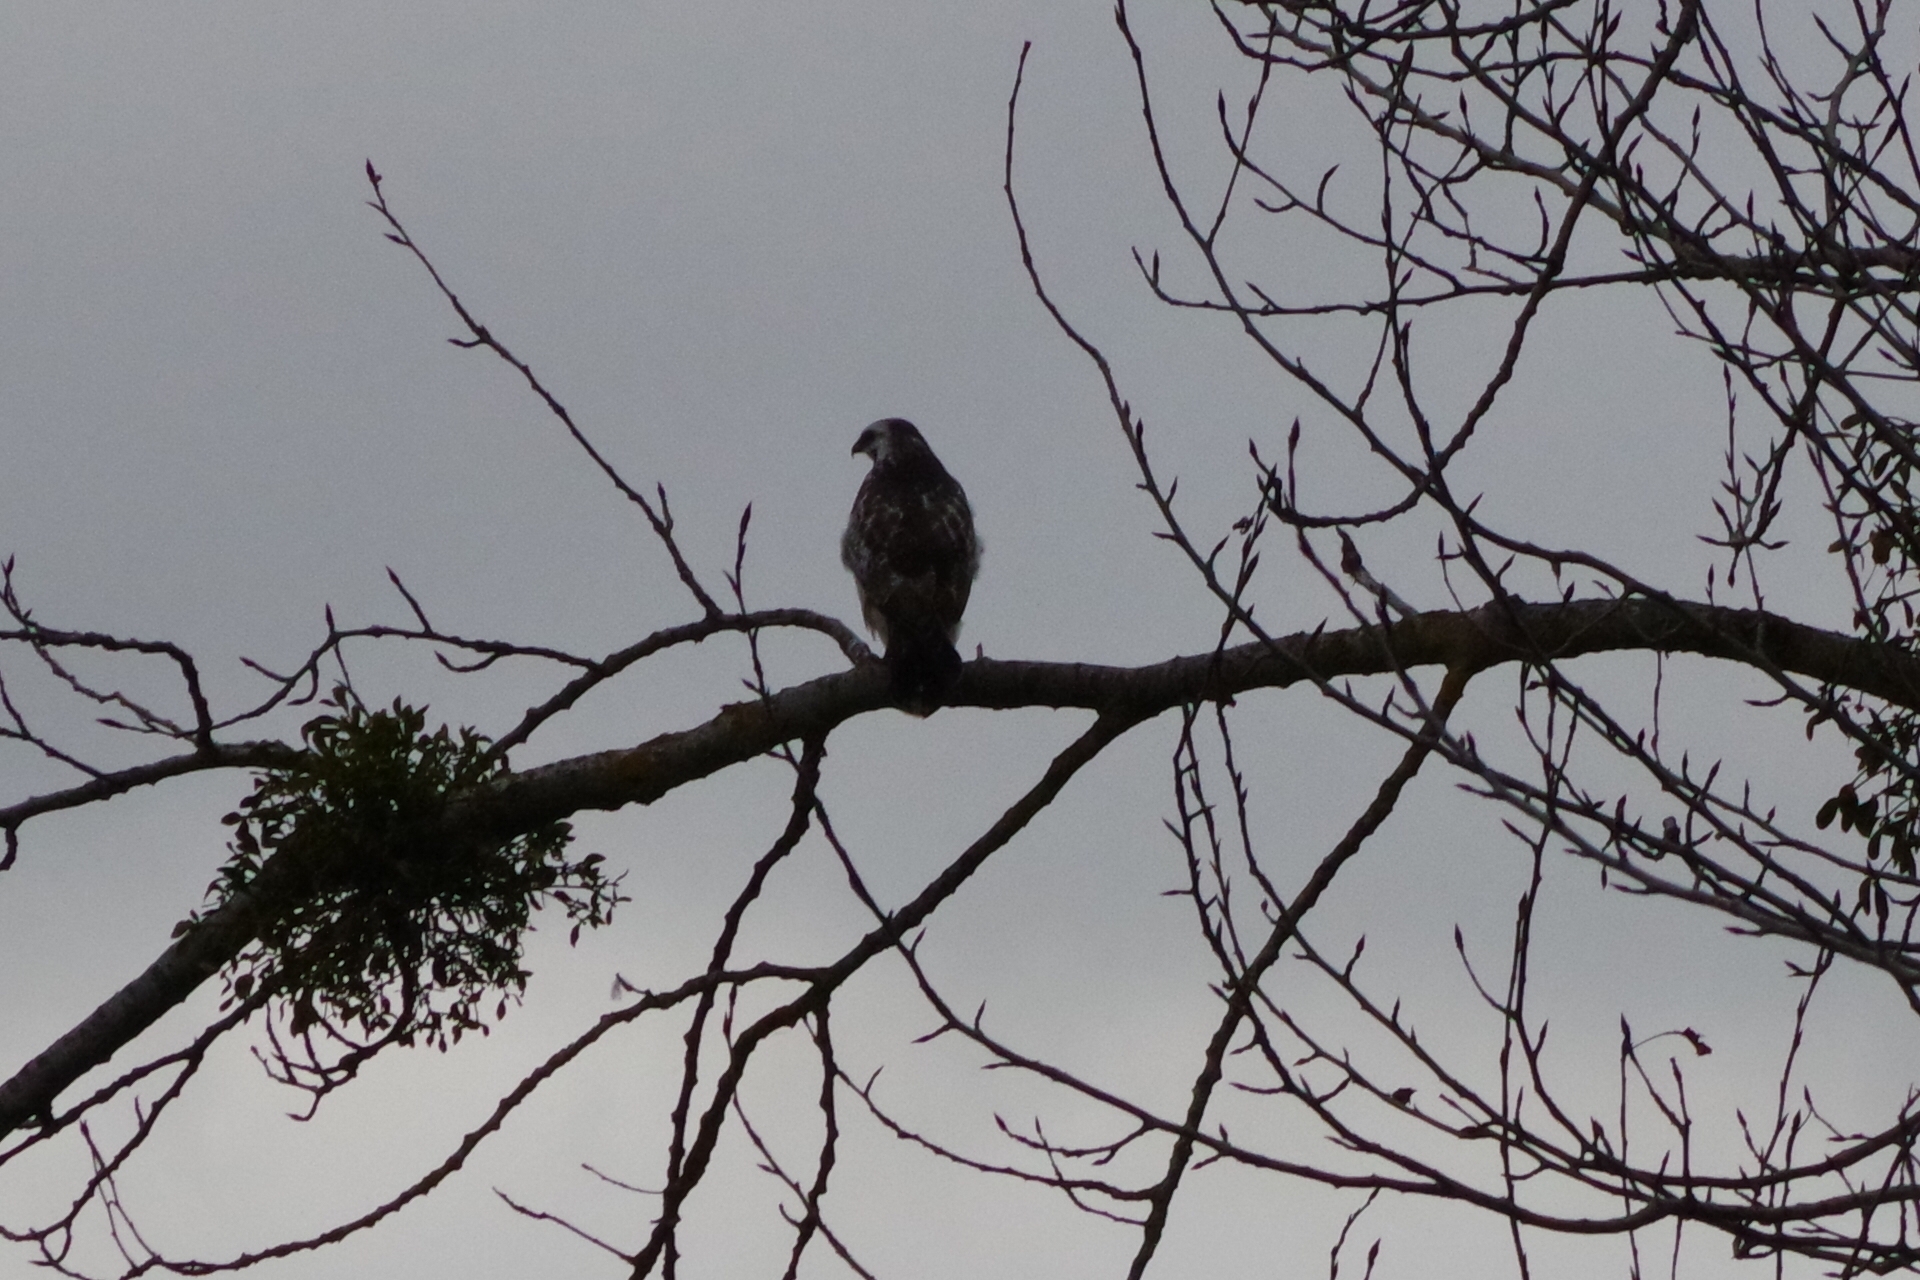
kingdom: Animalia
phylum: Chordata
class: Aves
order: Accipitriformes
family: Accipitridae
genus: Buteo
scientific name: Buteo buteo
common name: Common buzzard
